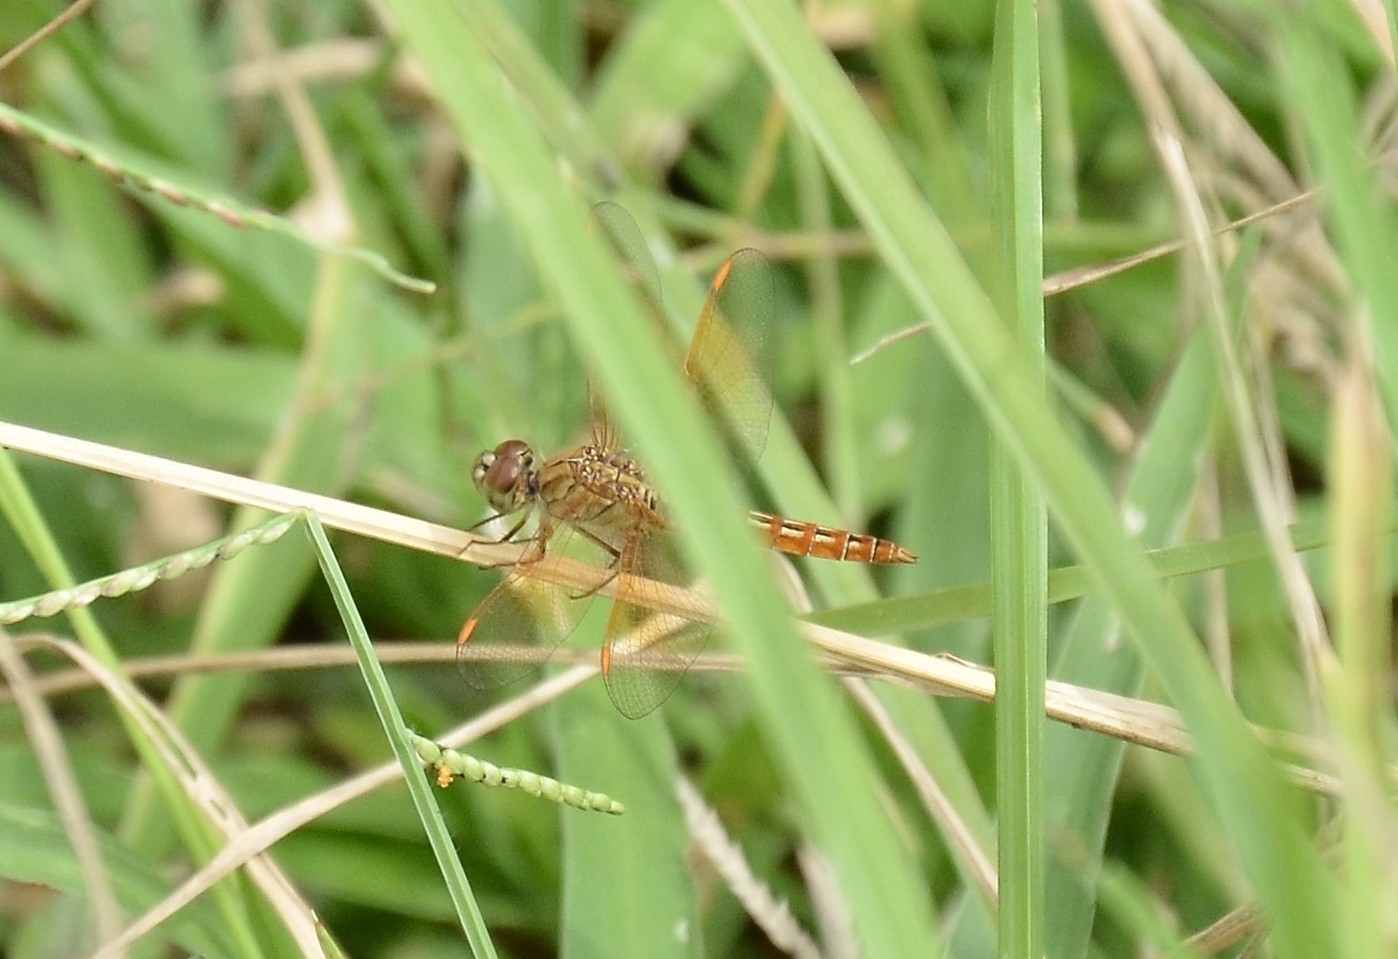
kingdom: Animalia
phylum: Arthropoda
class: Insecta
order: Odonata
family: Libellulidae
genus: Brachythemis
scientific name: Brachythemis contaminata
